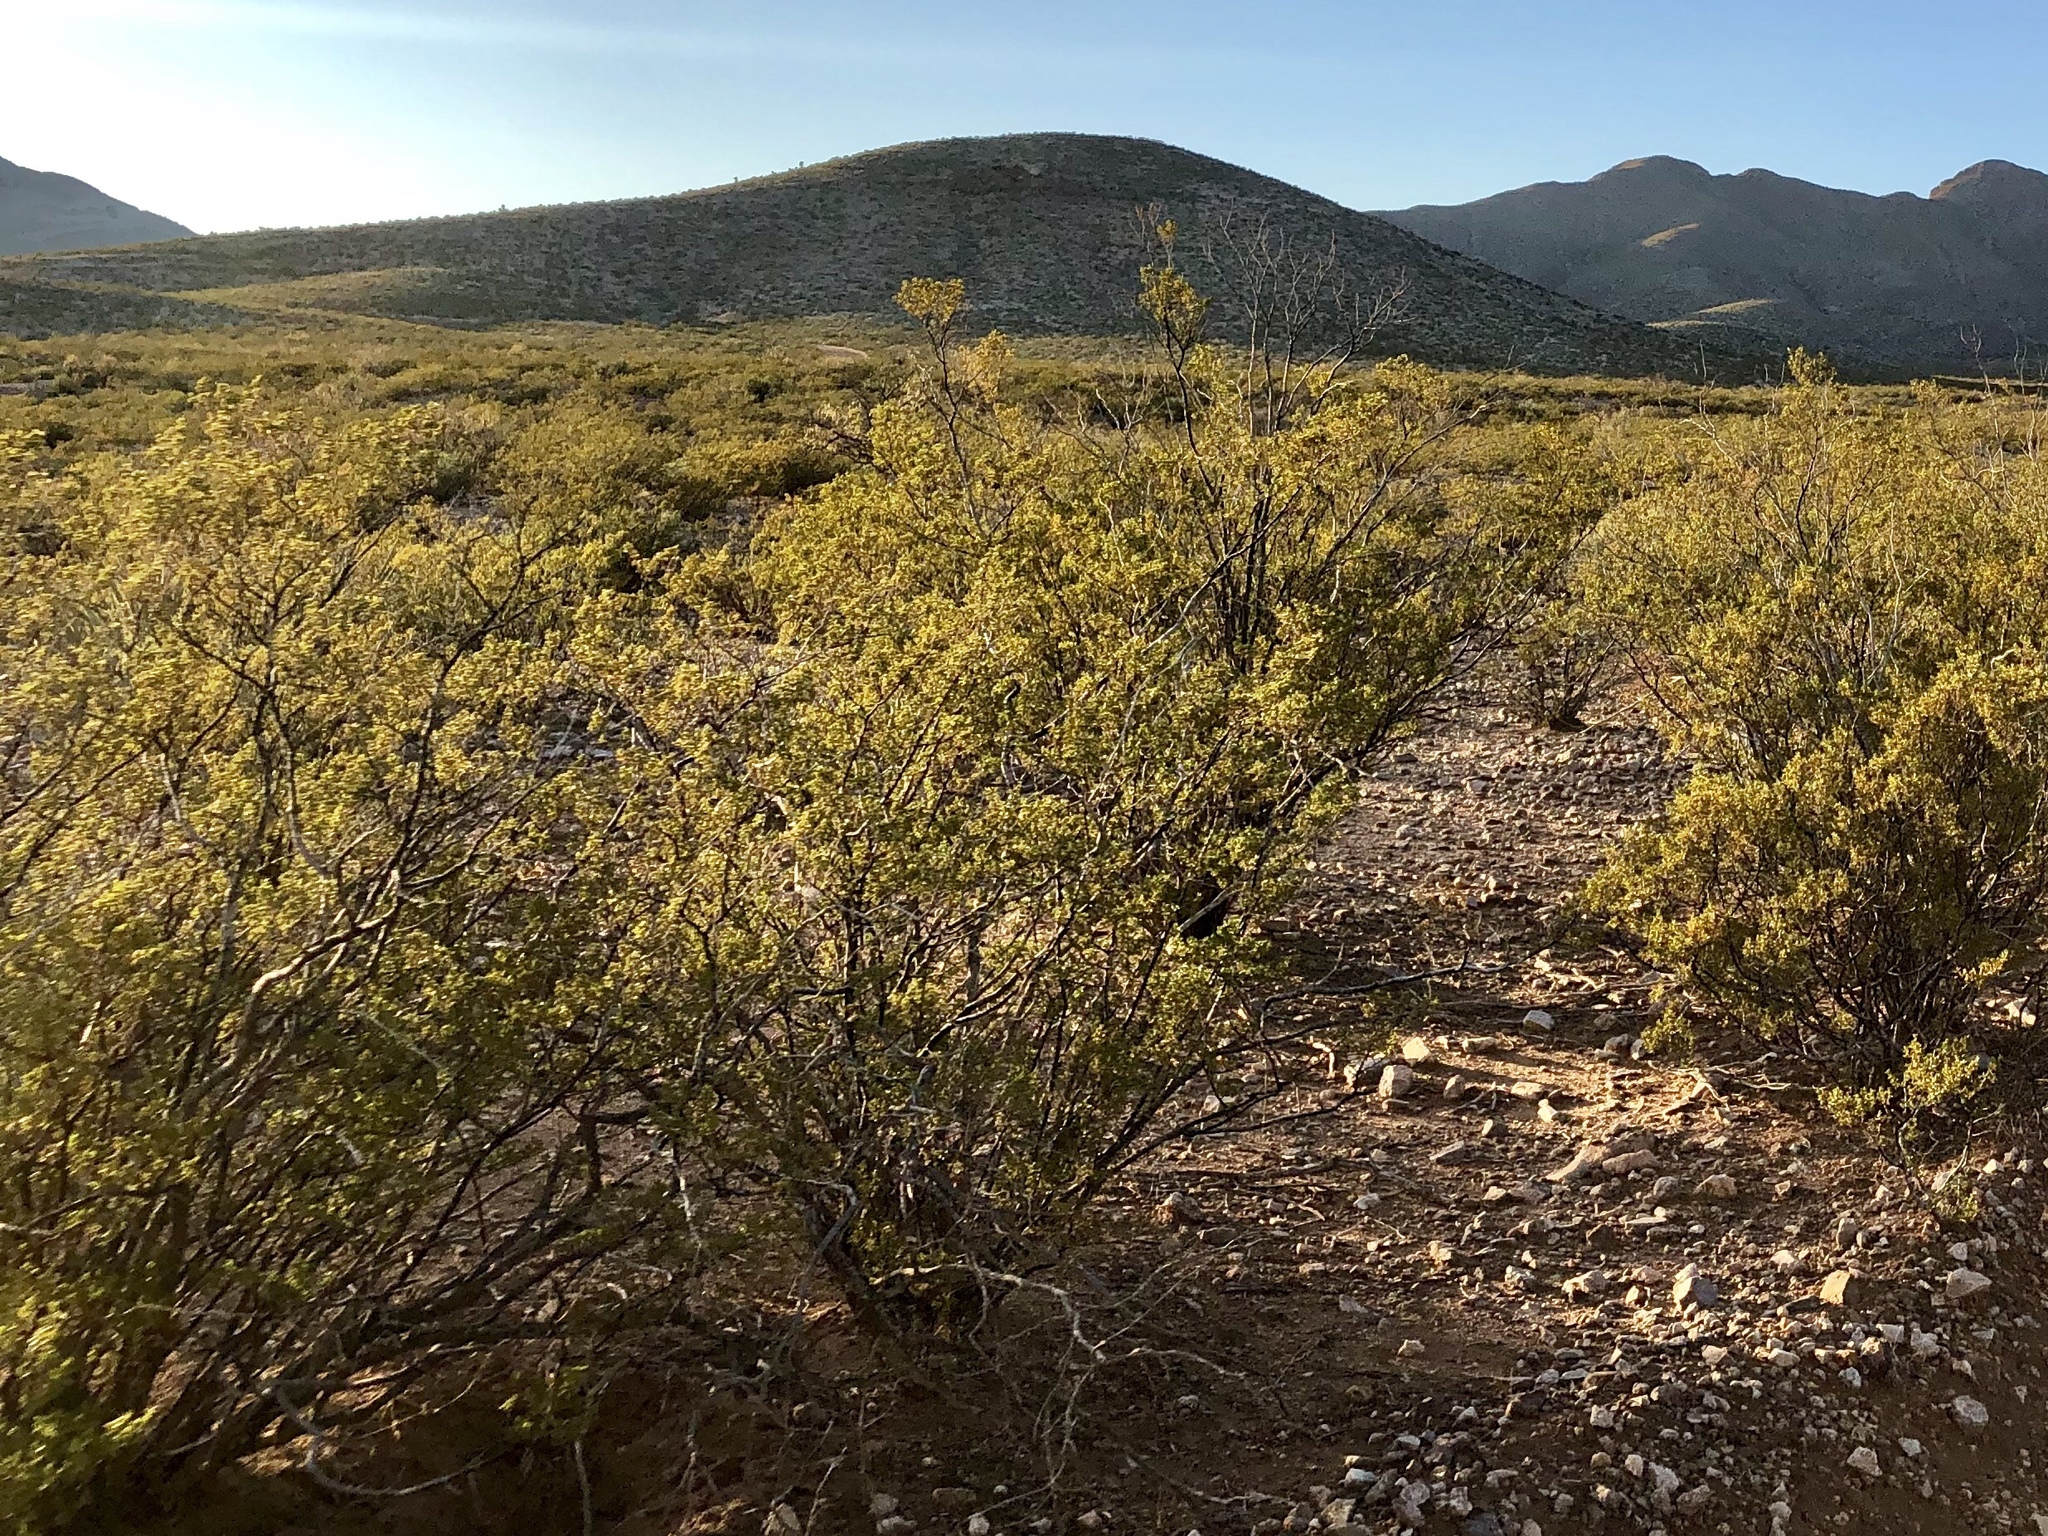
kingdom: Plantae
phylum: Tracheophyta
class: Magnoliopsida
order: Zygophyllales
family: Zygophyllaceae
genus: Larrea
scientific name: Larrea tridentata
